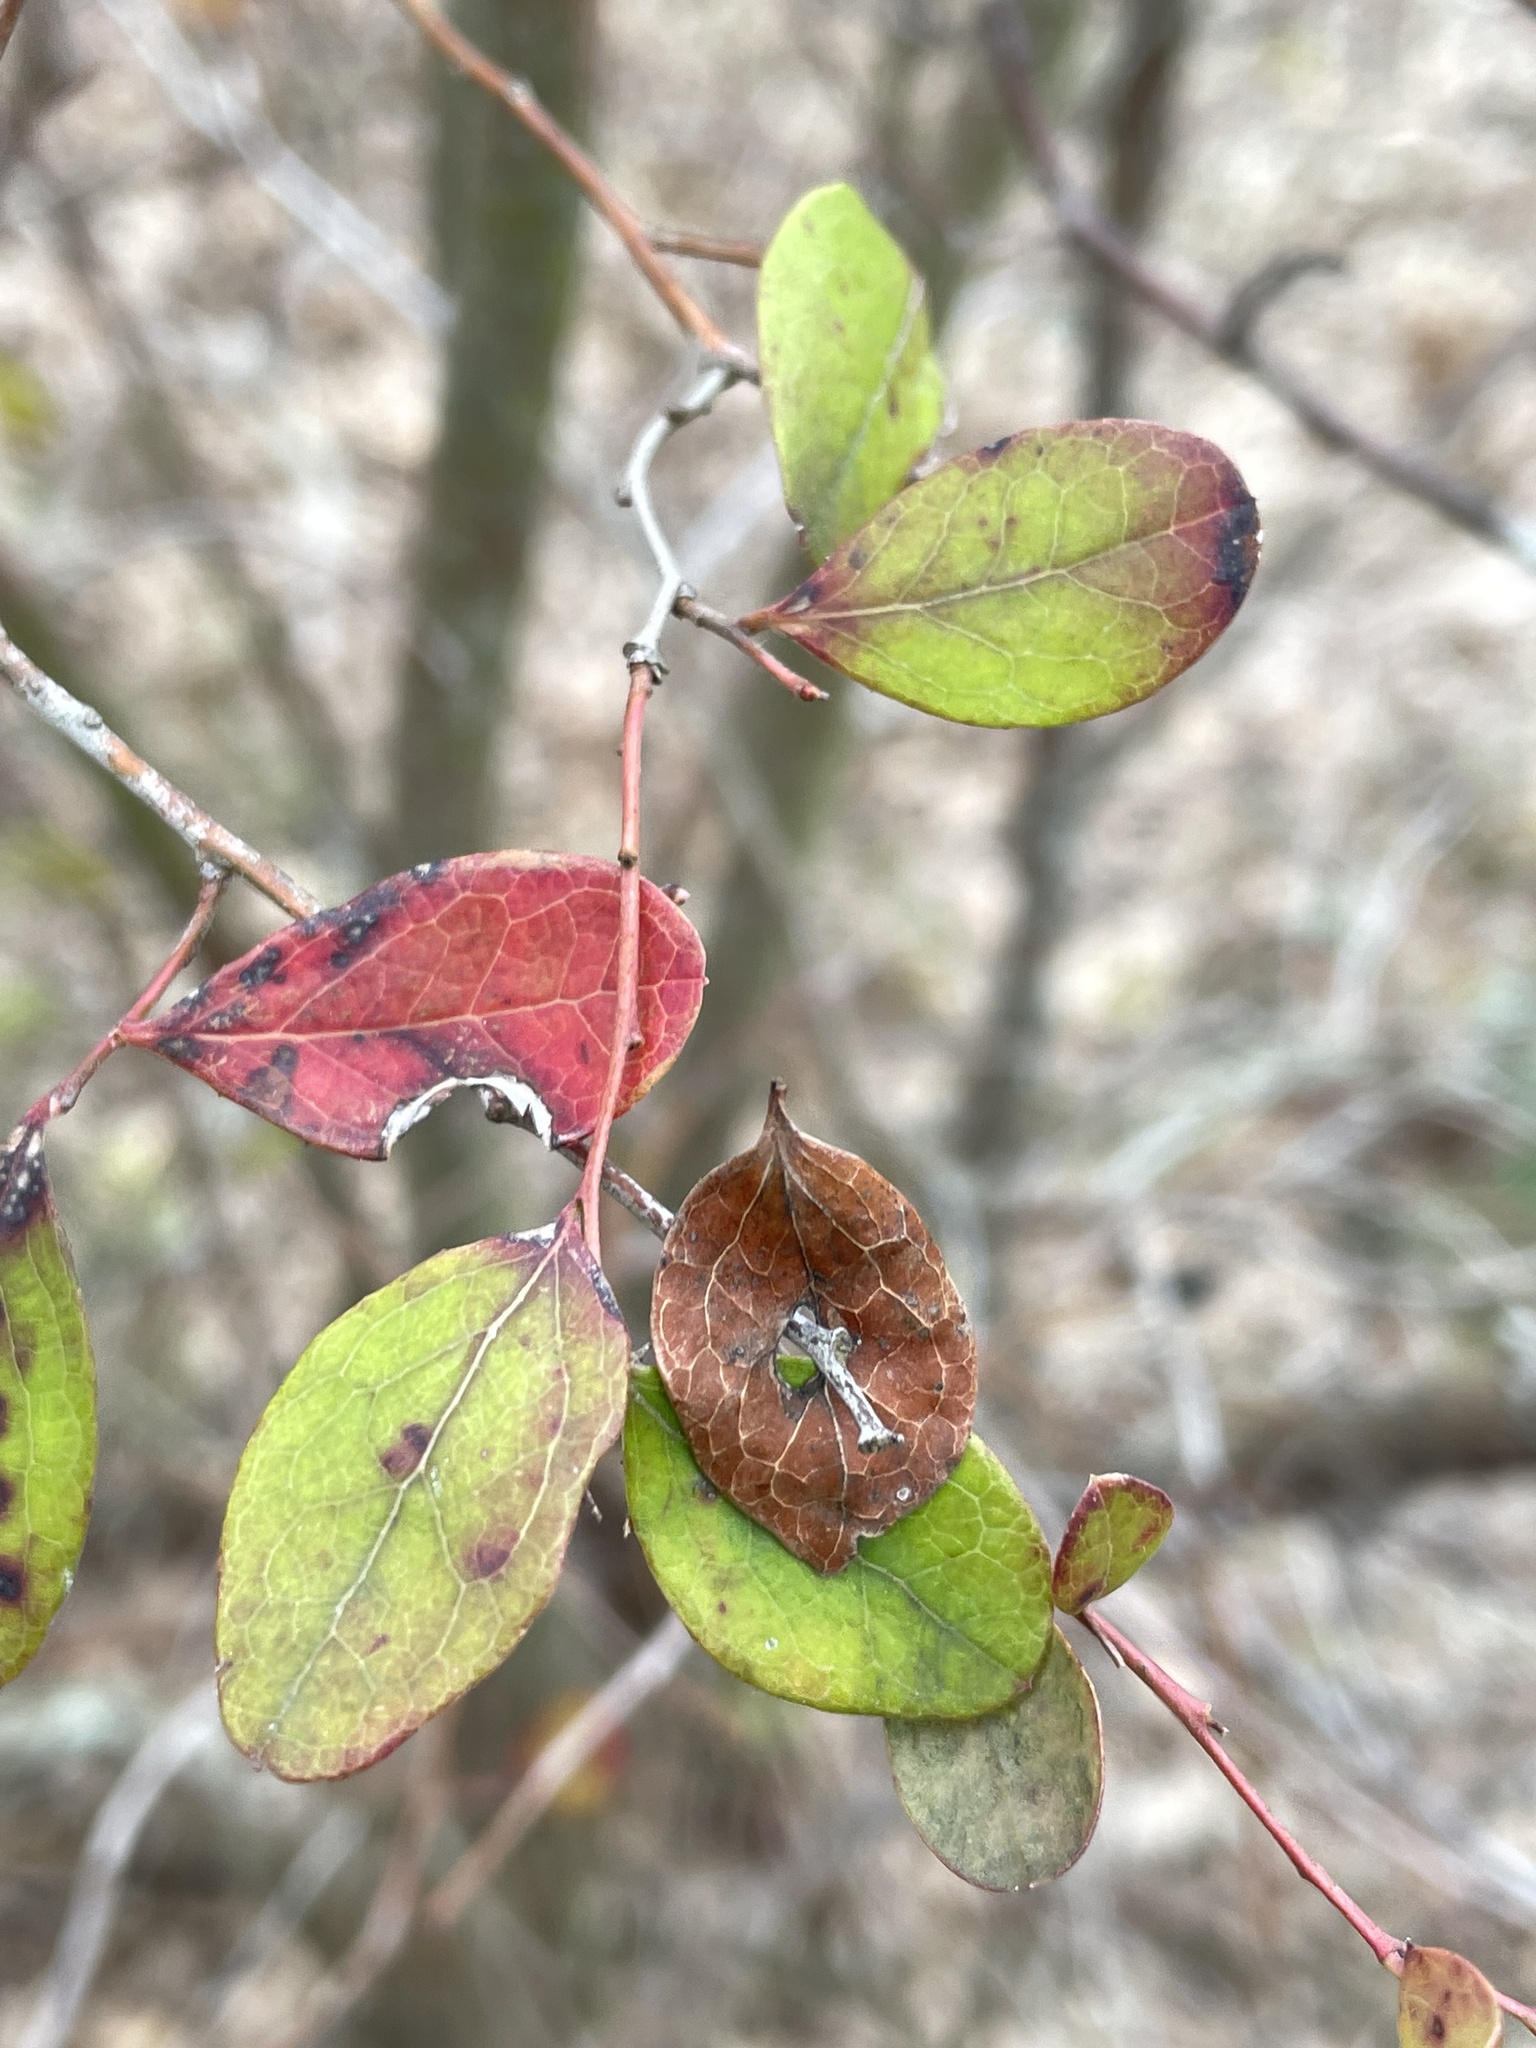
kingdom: Plantae
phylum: Tracheophyta
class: Magnoliopsida
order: Ericales
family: Ericaceae
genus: Vaccinium
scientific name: Vaccinium arboreum
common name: Farkleberry
